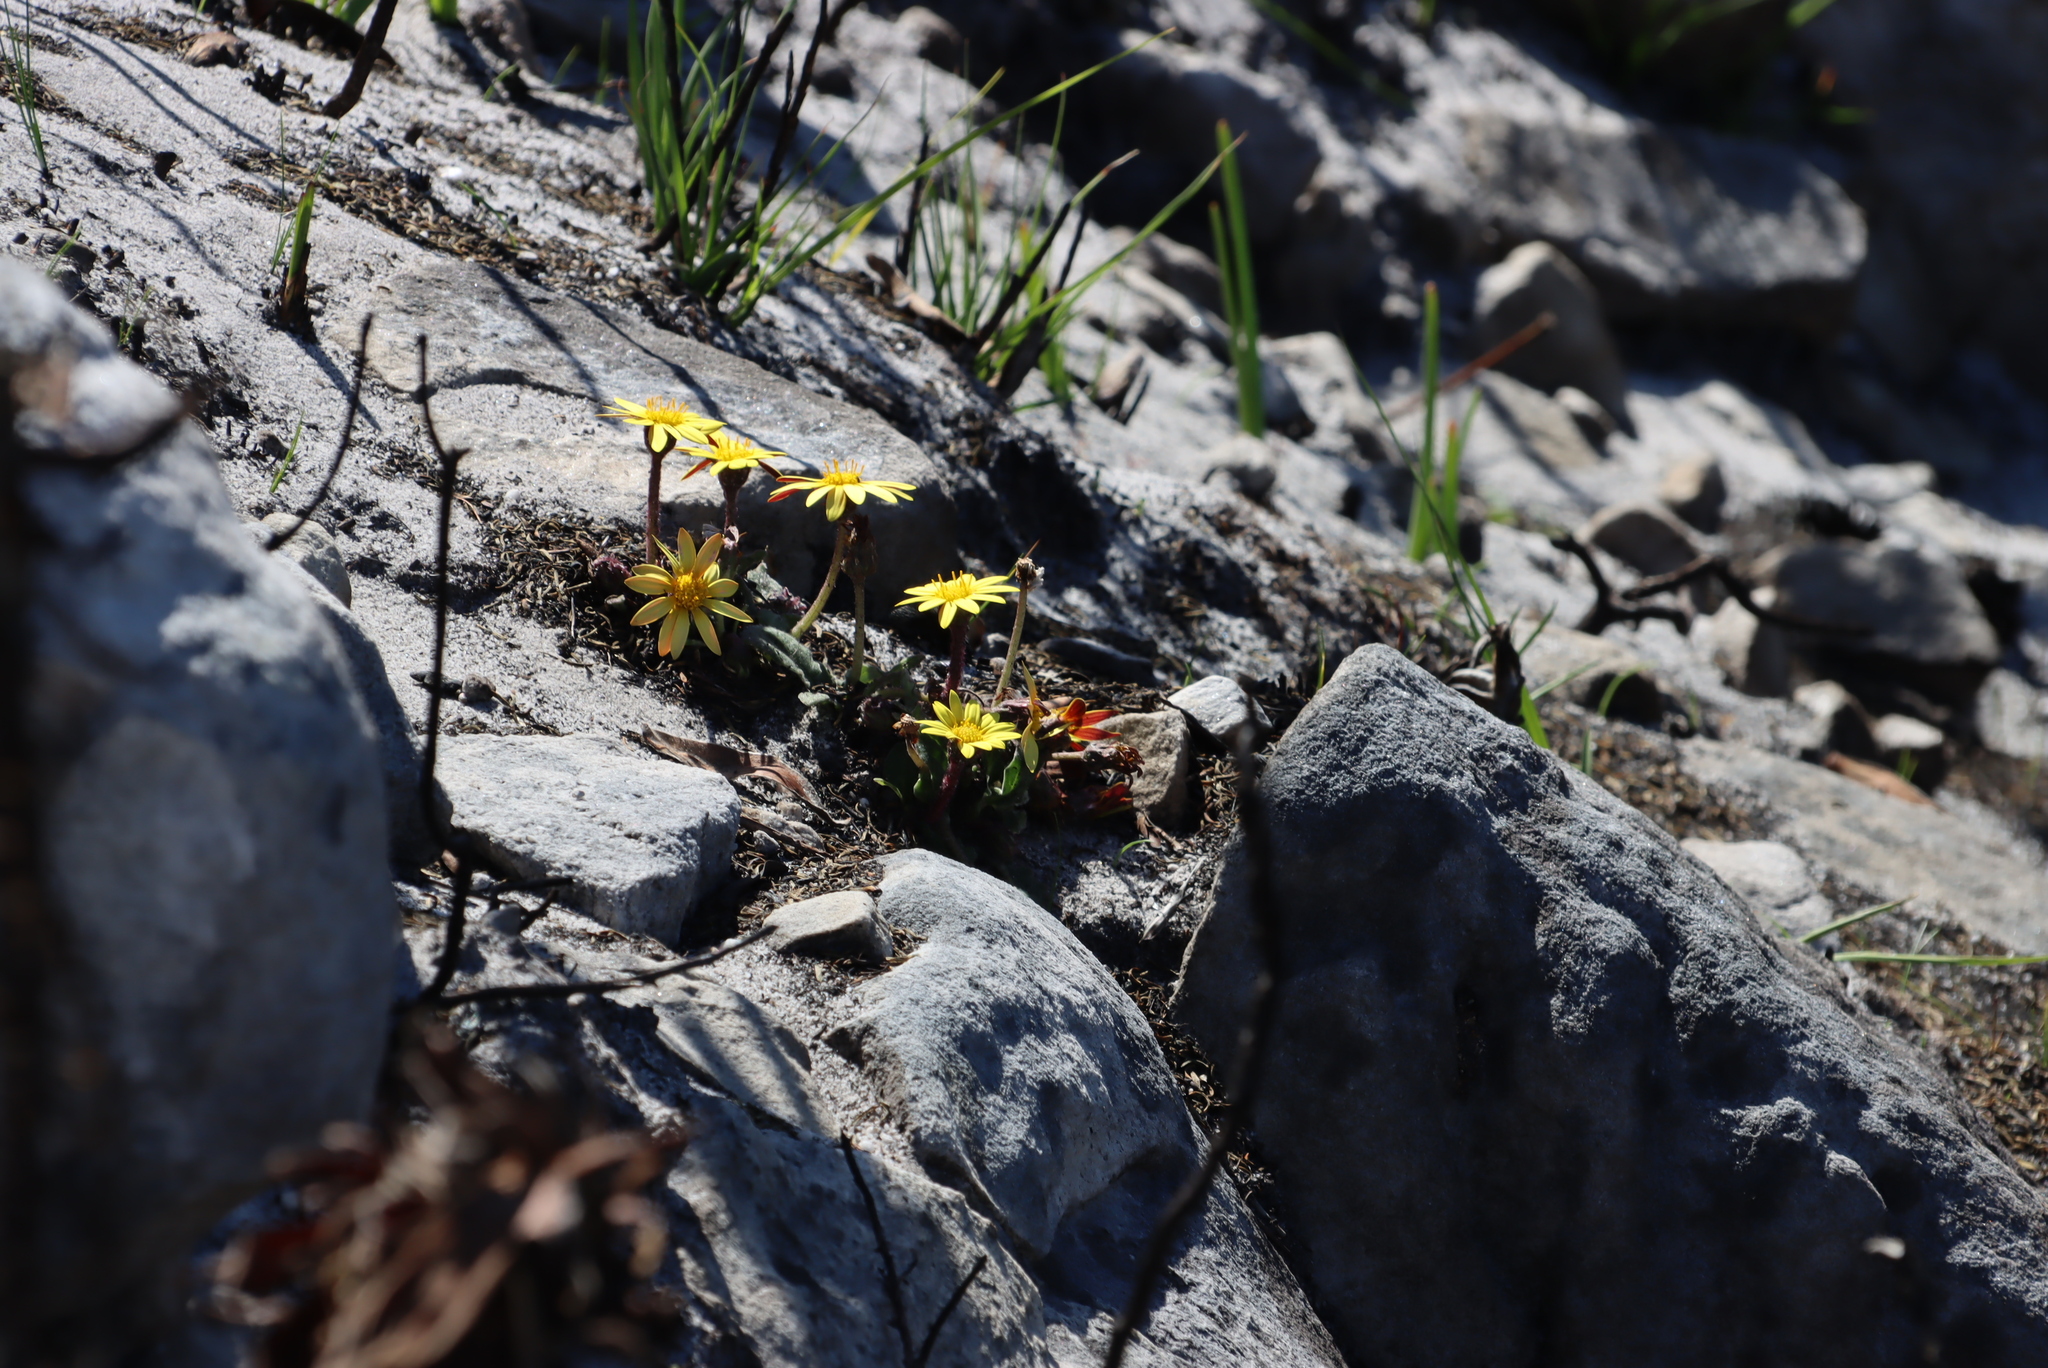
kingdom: Plantae
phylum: Tracheophyta
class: Magnoliopsida
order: Asterales
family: Asteraceae
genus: Haplocarpha
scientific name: Haplocarpha lanata
